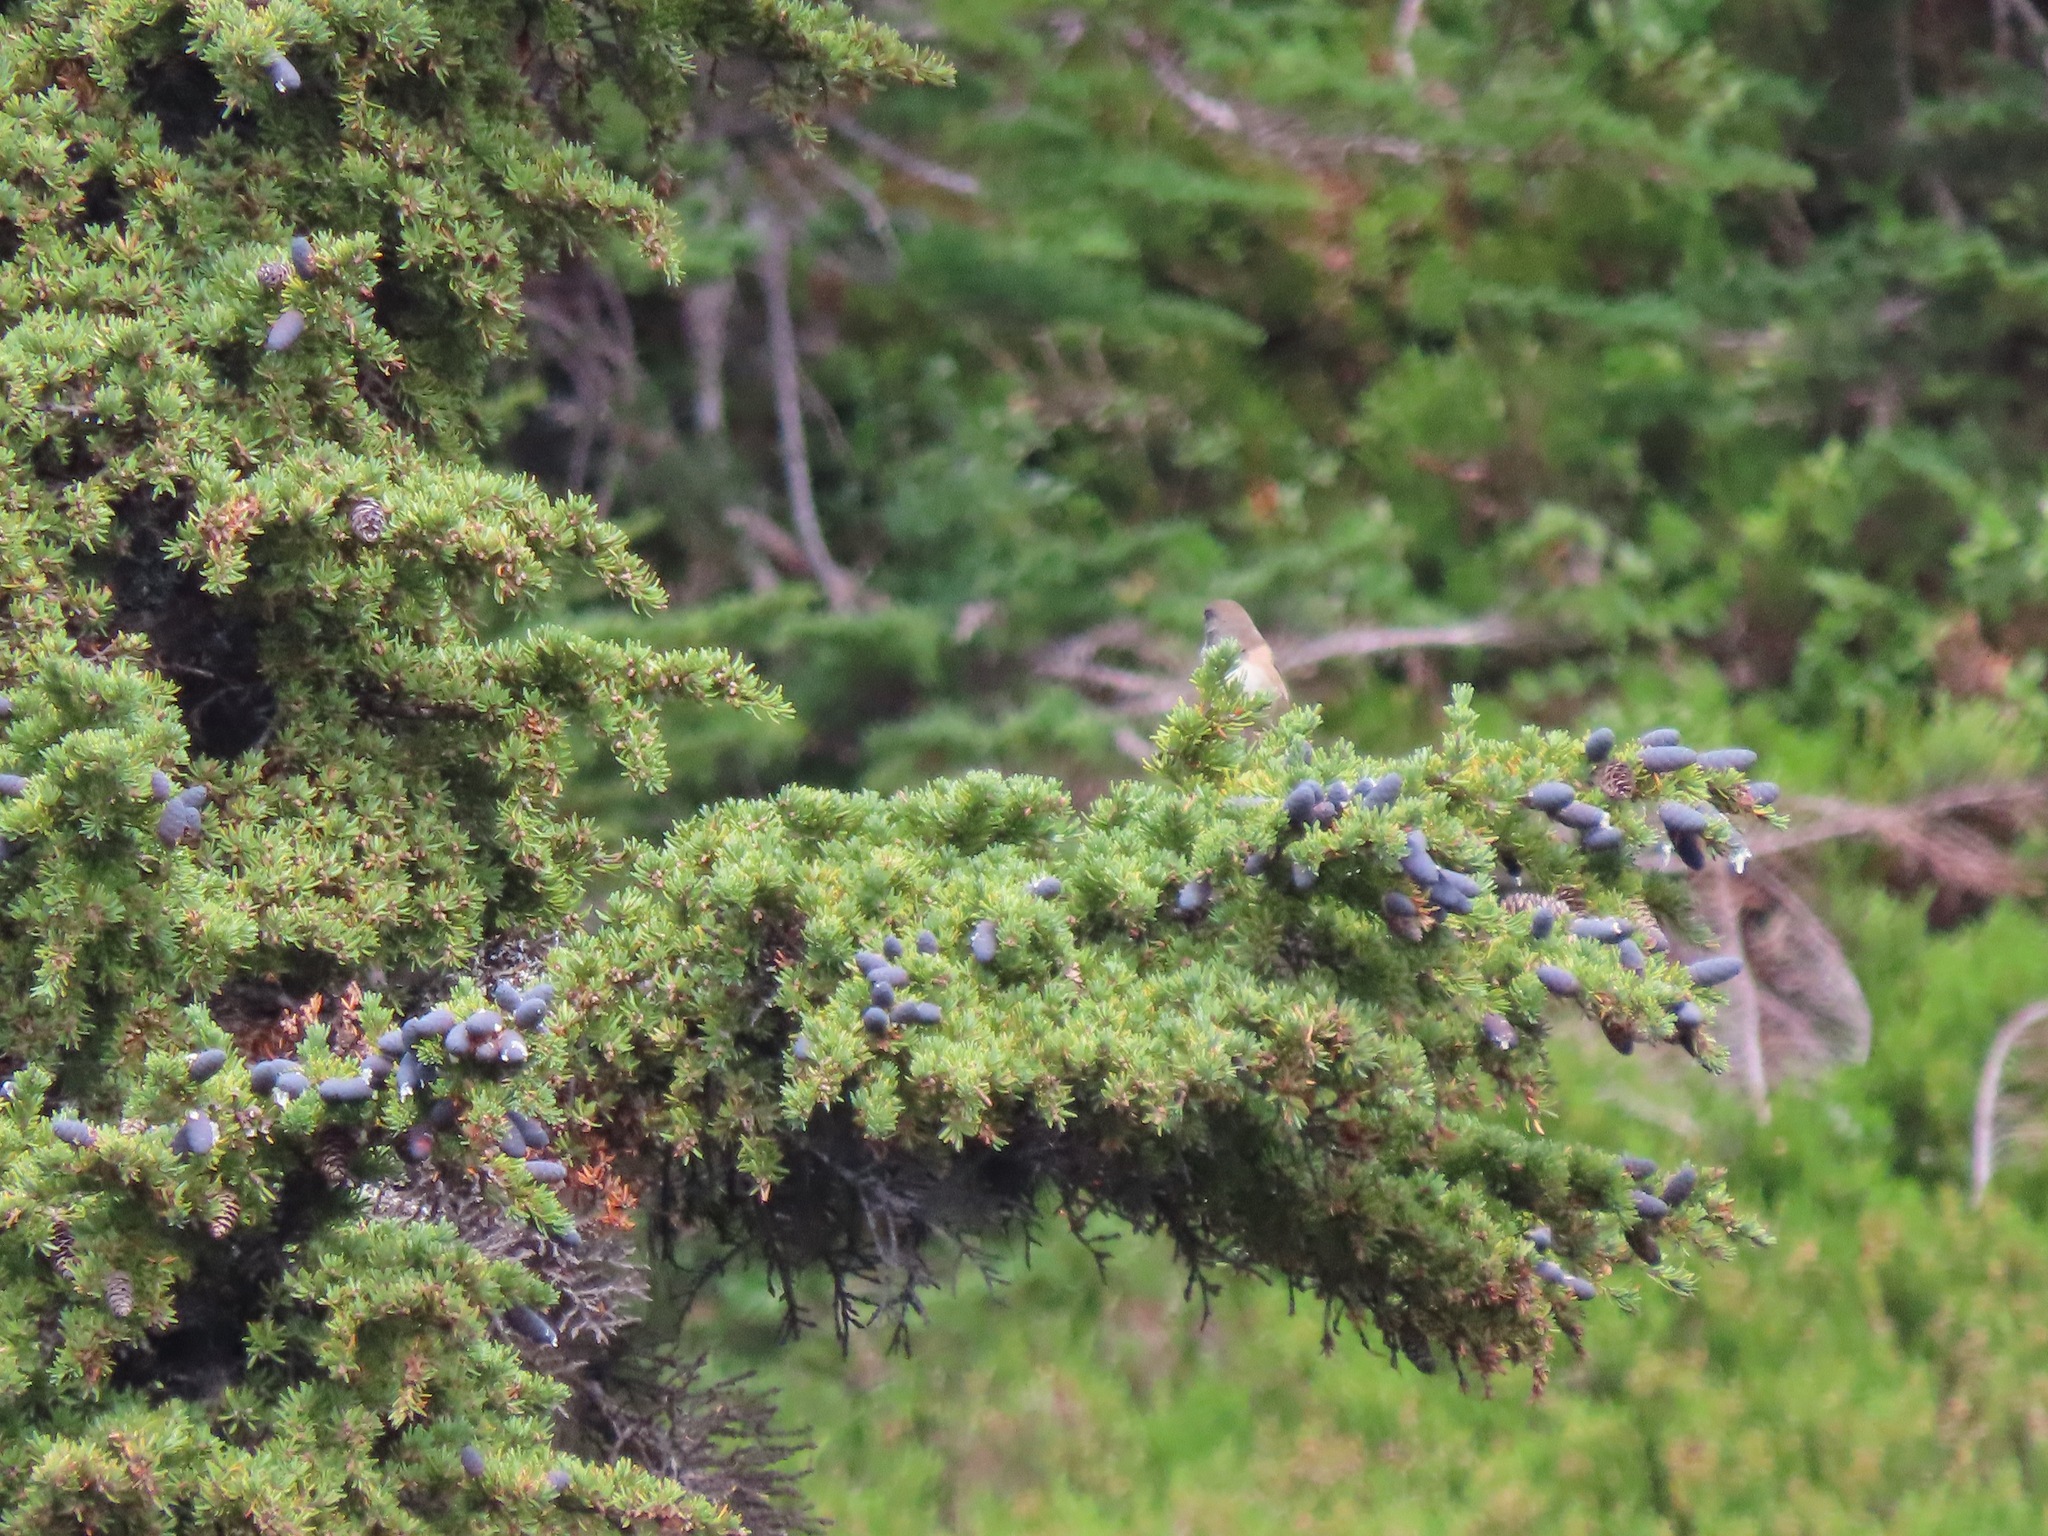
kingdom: Animalia
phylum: Chordata
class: Aves
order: Passeriformes
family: Passerellidae
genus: Junco
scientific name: Junco hyemalis
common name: Dark-eyed junco
